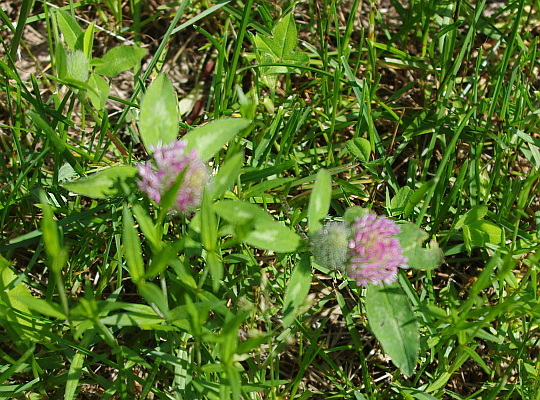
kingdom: Plantae
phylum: Tracheophyta
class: Magnoliopsida
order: Fabales
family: Fabaceae
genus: Trifolium
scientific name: Trifolium pratense
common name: Red clover
